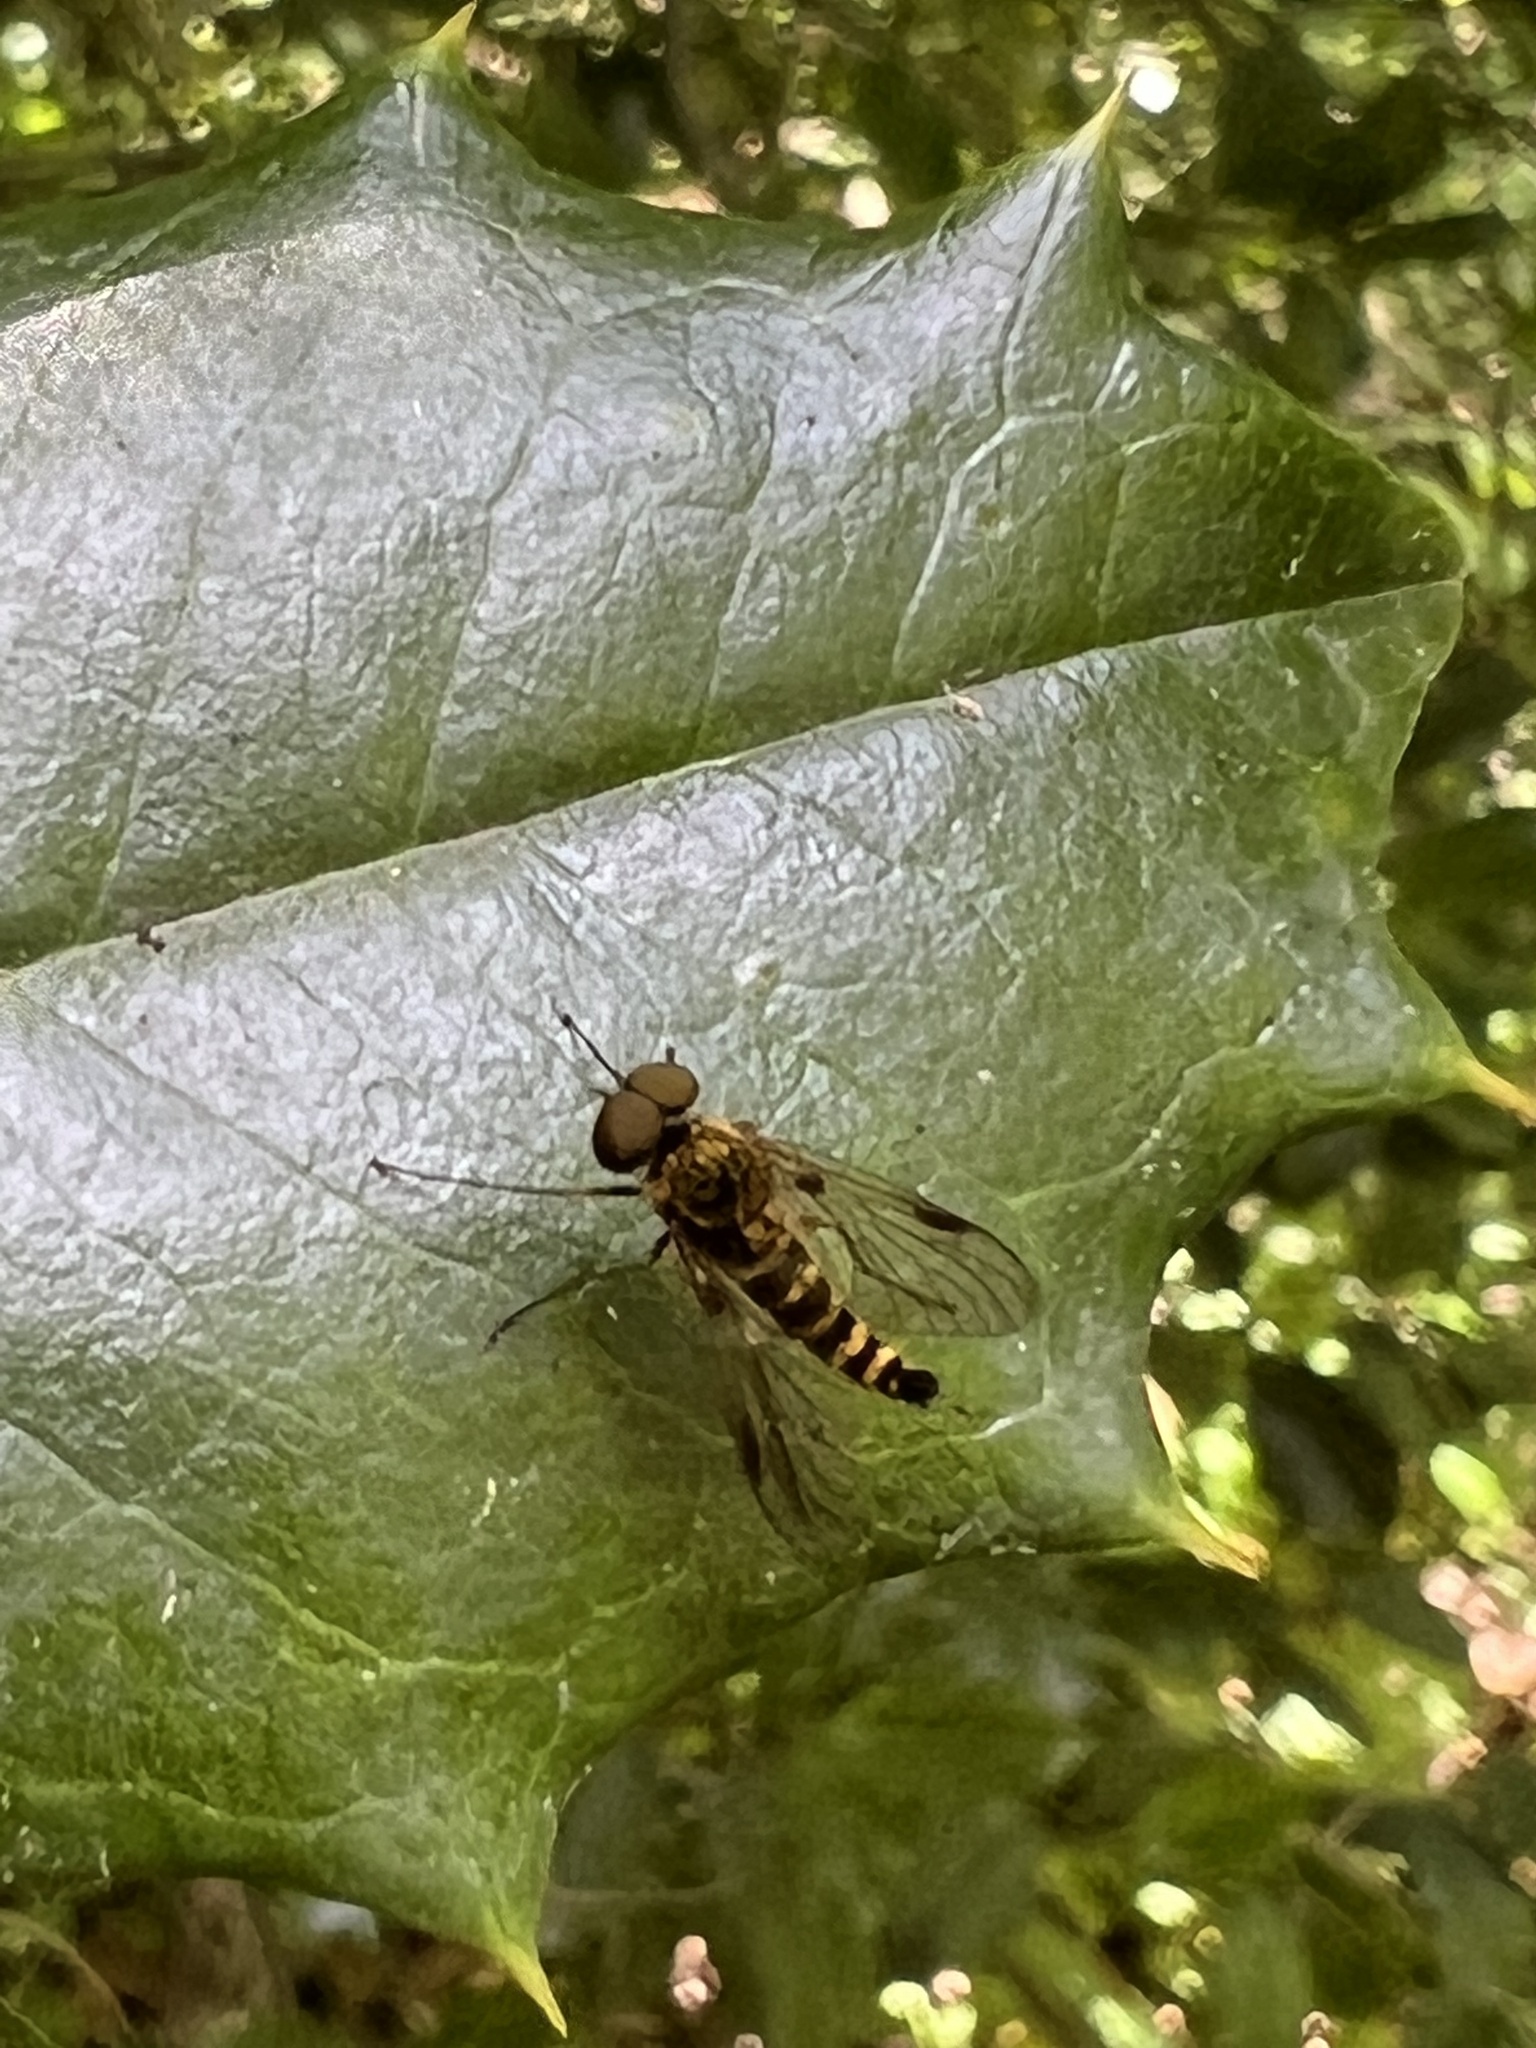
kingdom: Animalia
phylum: Arthropoda
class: Insecta
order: Diptera
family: Rhagionidae
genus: Chrysopilus
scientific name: Chrysopilus fasciatus
